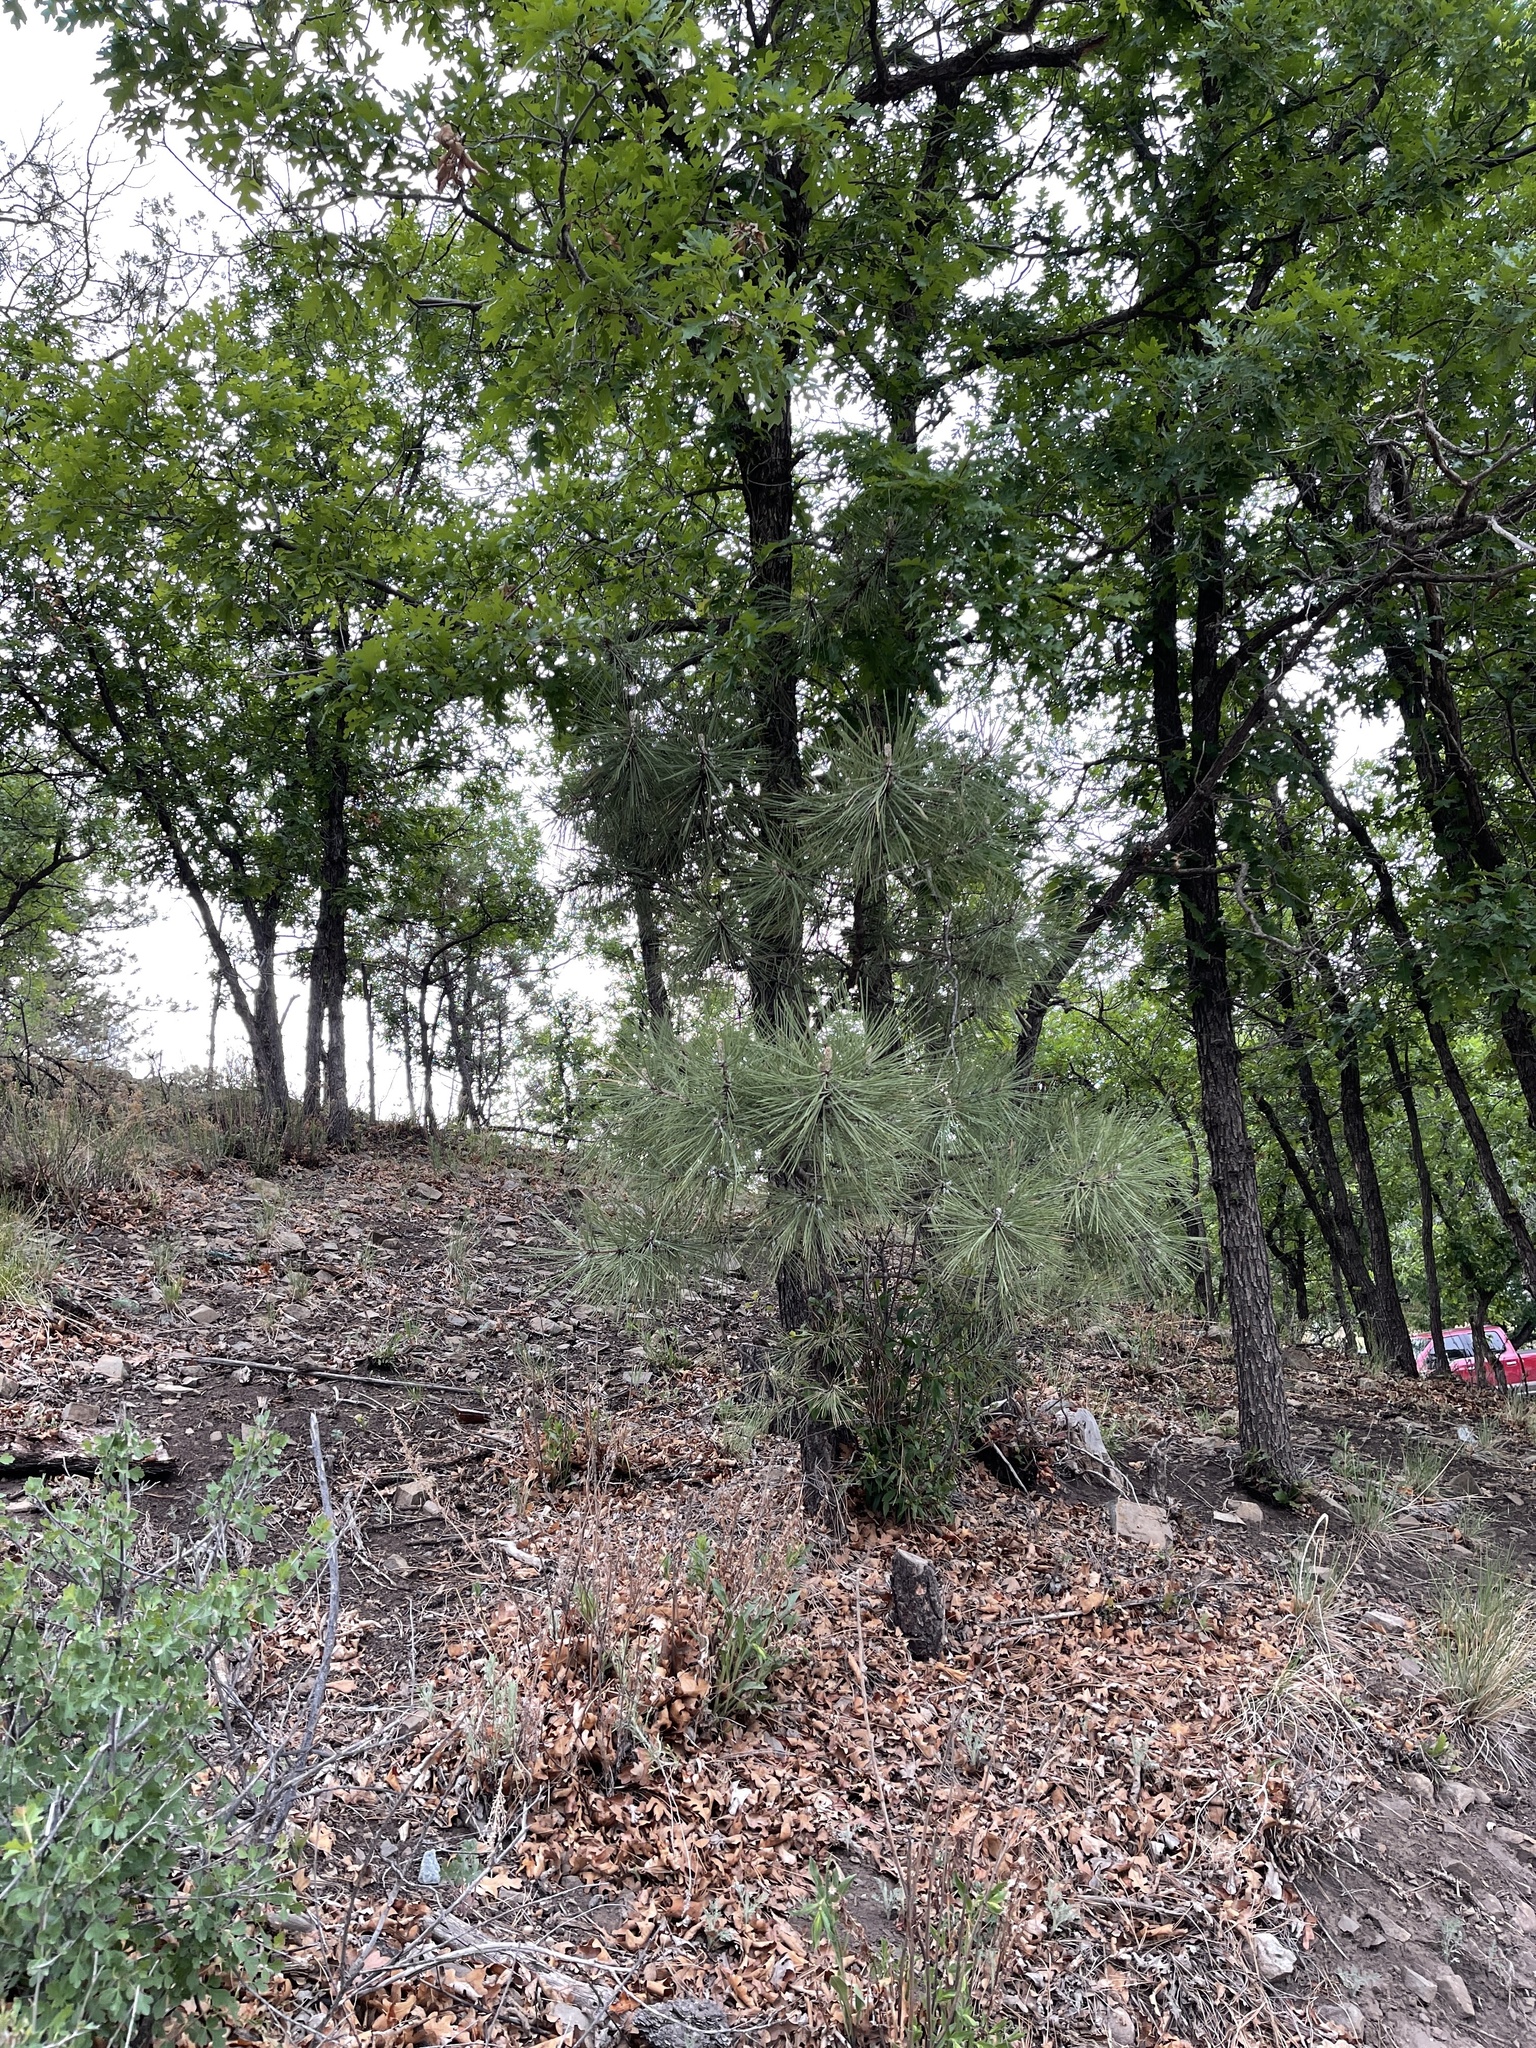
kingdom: Plantae
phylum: Tracheophyta
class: Pinopsida
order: Pinales
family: Pinaceae
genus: Pinus
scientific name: Pinus ponderosa
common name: Western yellow-pine
